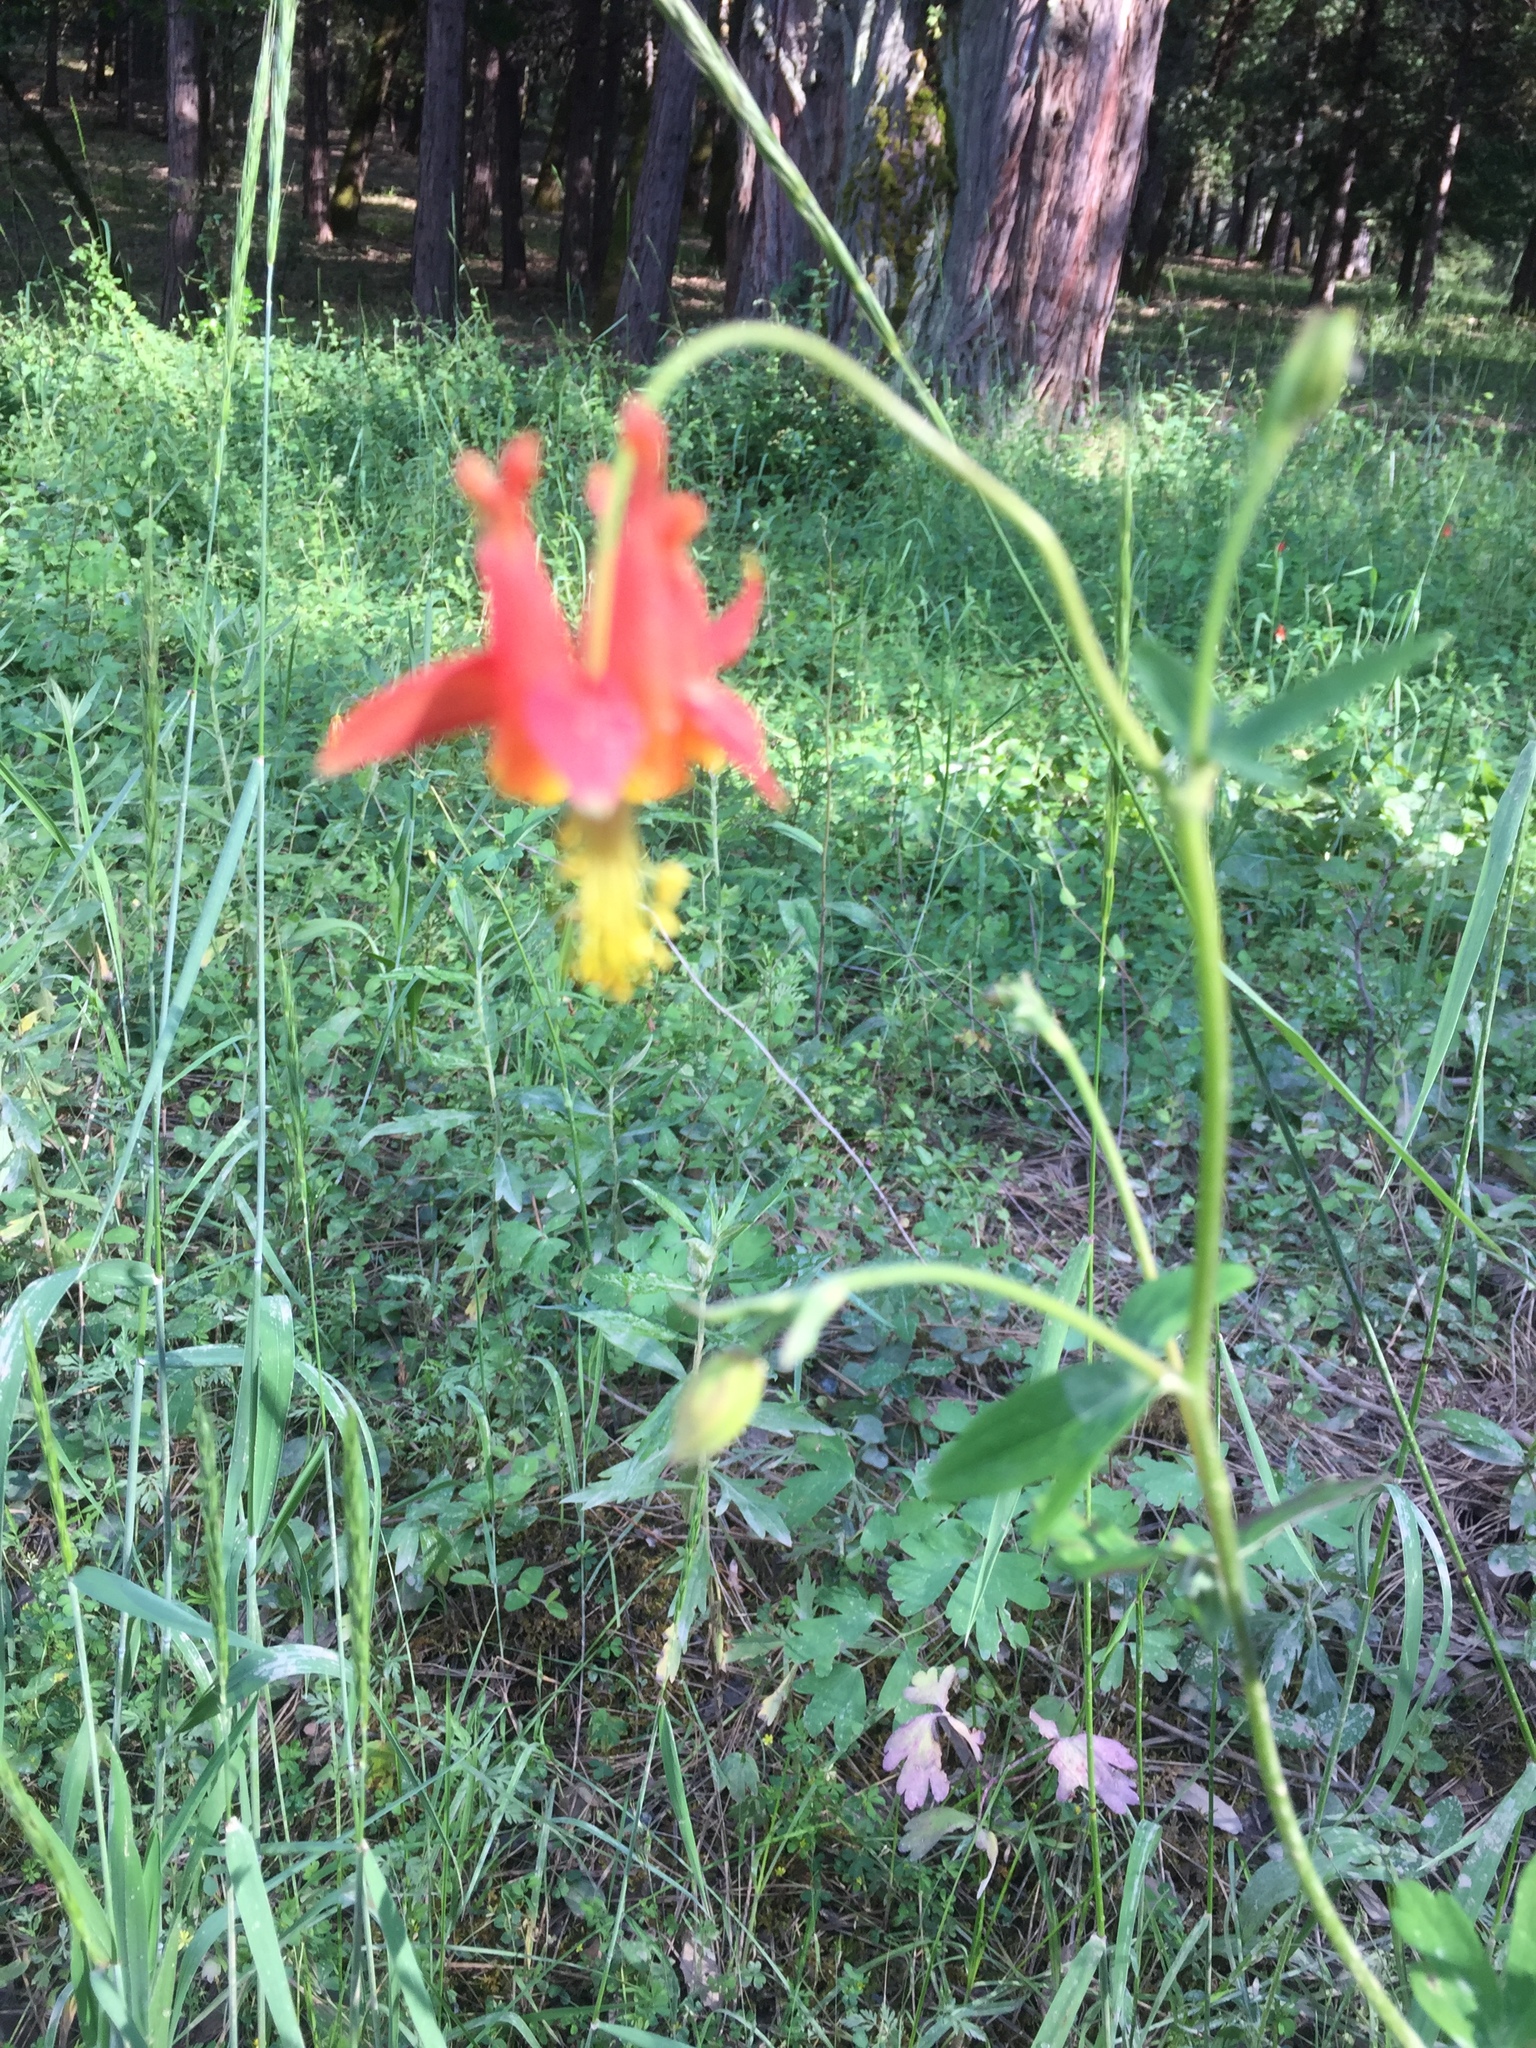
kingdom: Plantae
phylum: Tracheophyta
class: Magnoliopsida
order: Ranunculales
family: Ranunculaceae
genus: Aquilegia
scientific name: Aquilegia formosa
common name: Sitka columbine
